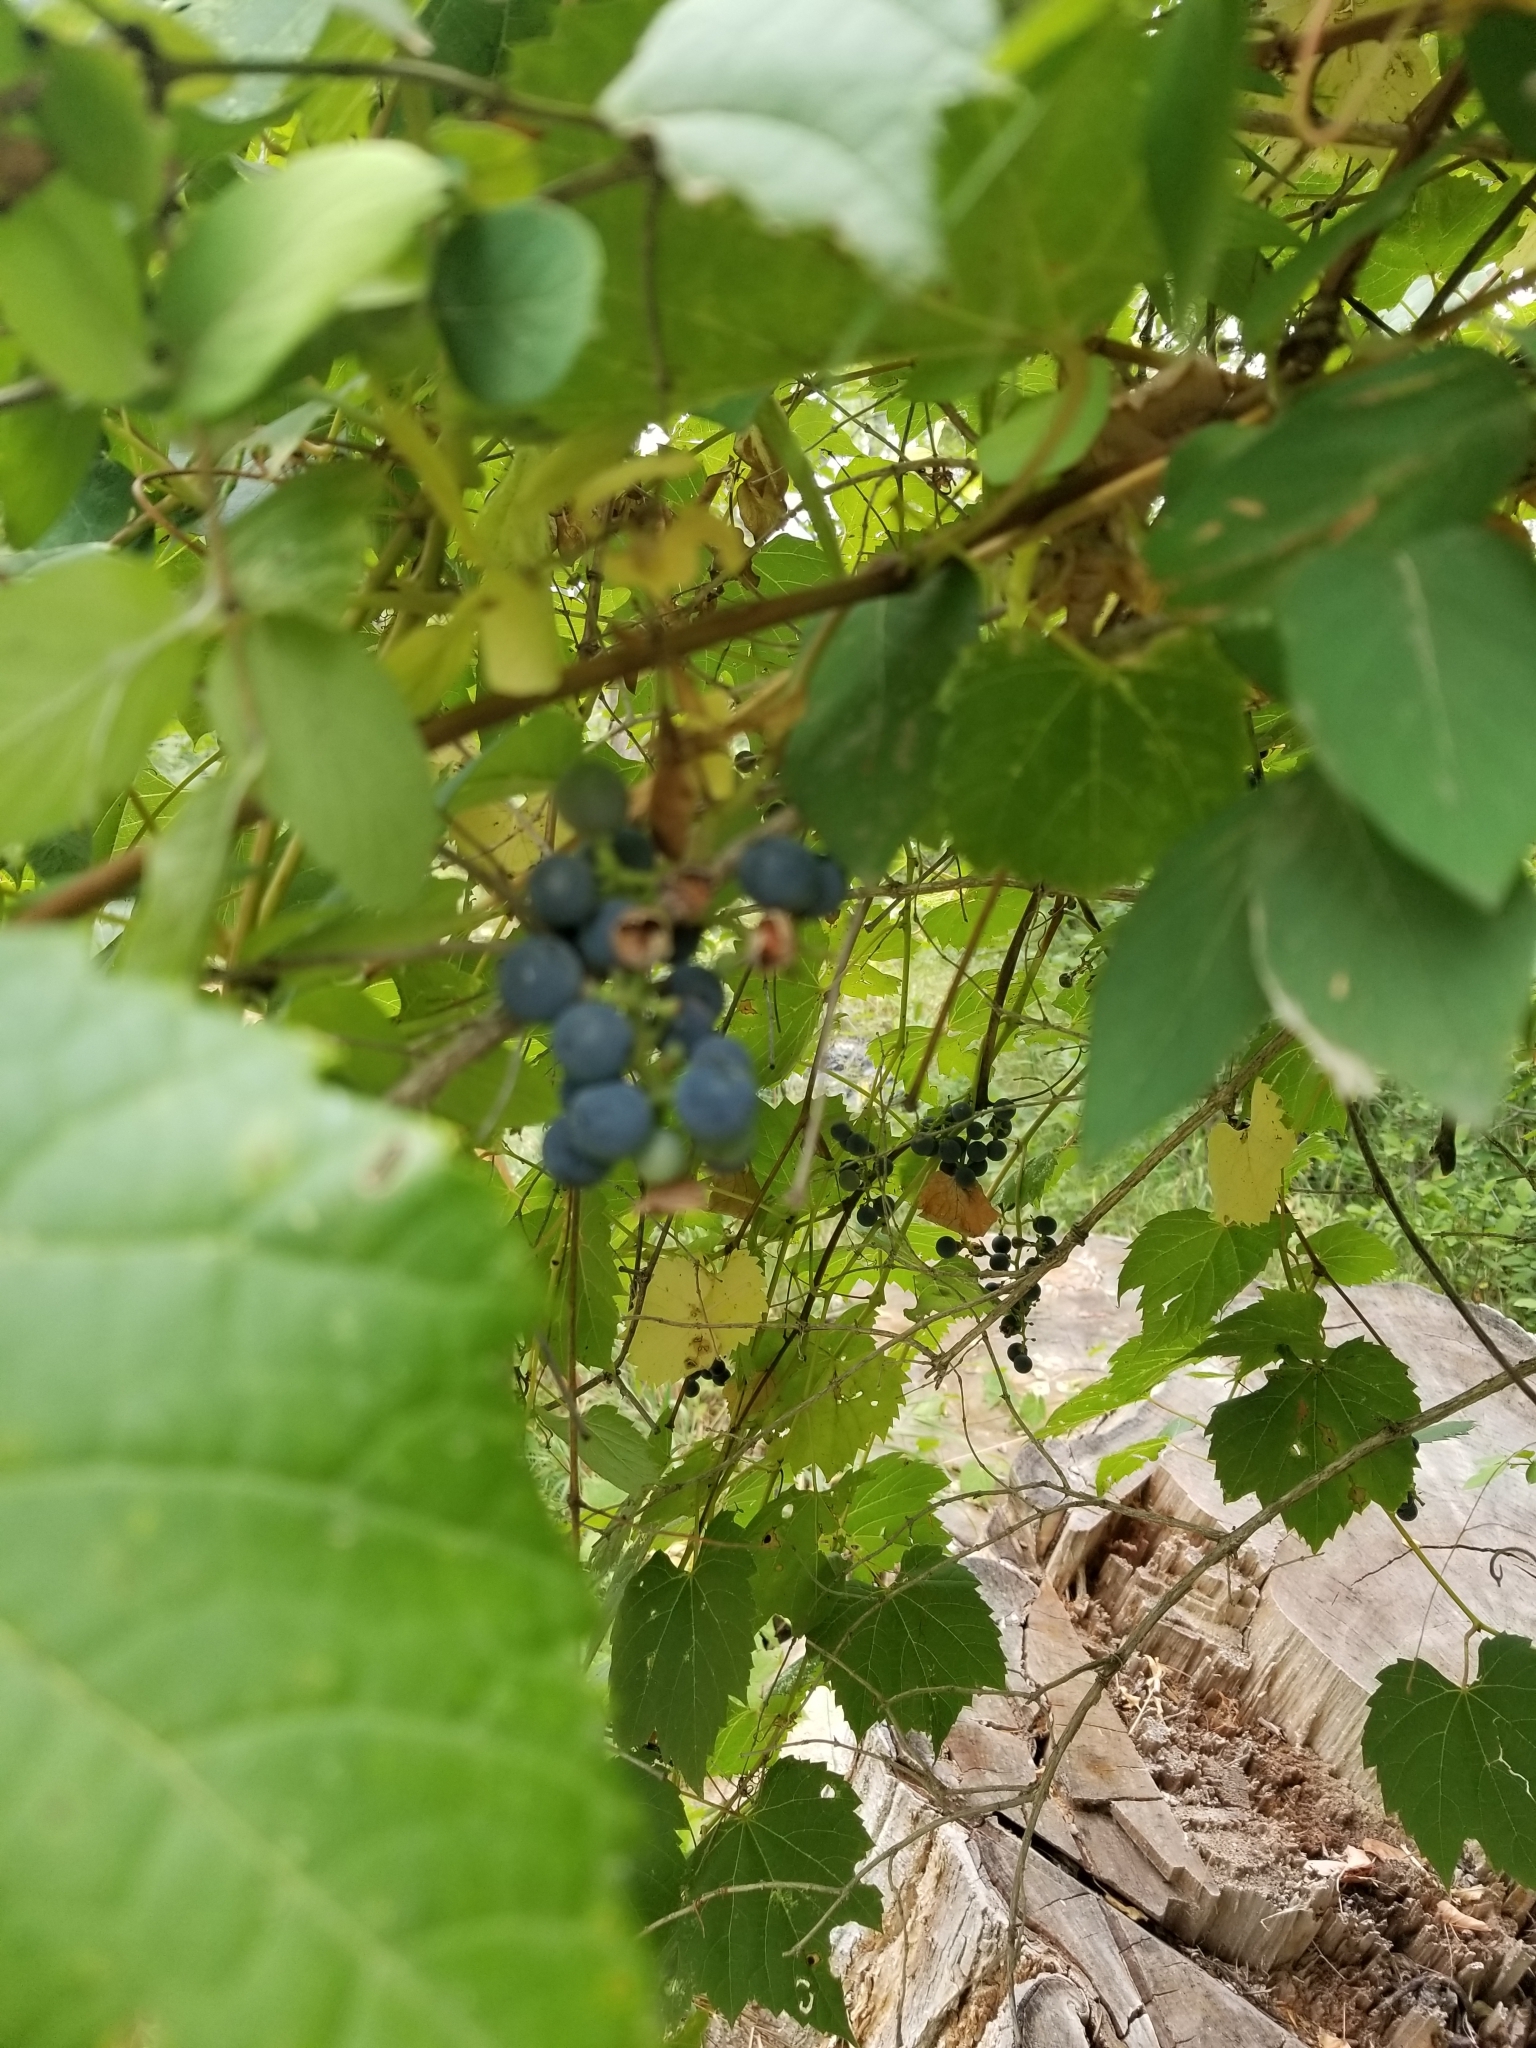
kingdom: Plantae
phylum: Tracheophyta
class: Magnoliopsida
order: Vitales
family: Vitaceae
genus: Vitis
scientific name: Vitis riparia
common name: Frost grape
